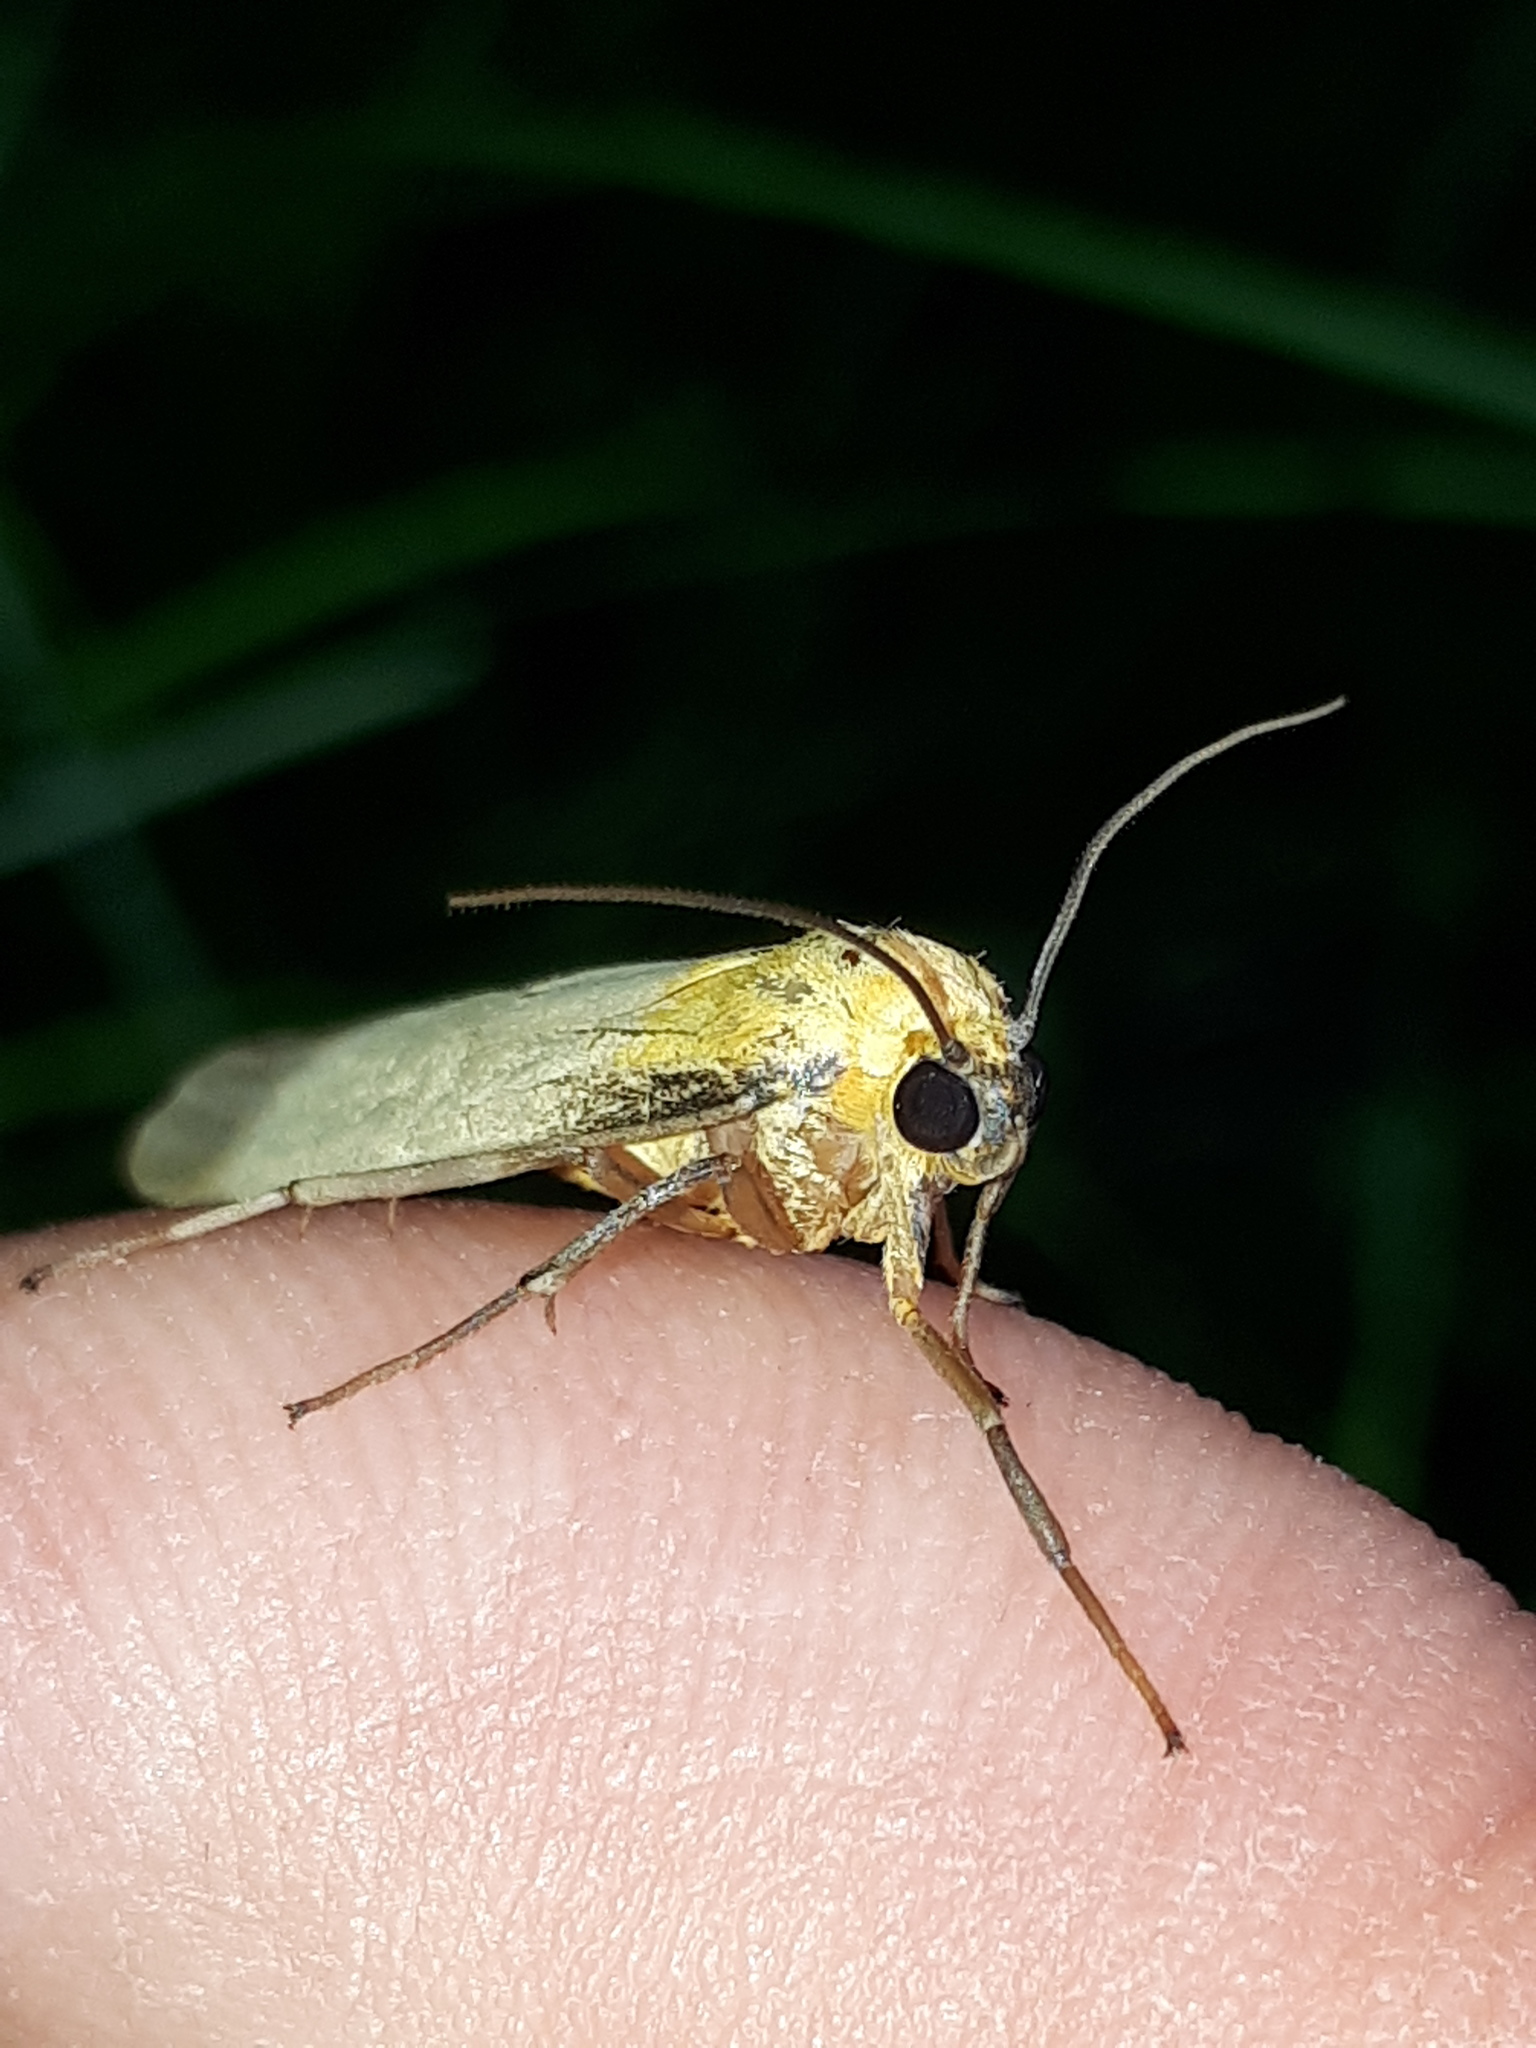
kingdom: Animalia
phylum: Arthropoda
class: Insecta
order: Lepidoptera
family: Erebidae
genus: Lithosia
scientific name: Lithosia quadra
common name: Four-spotted footman
